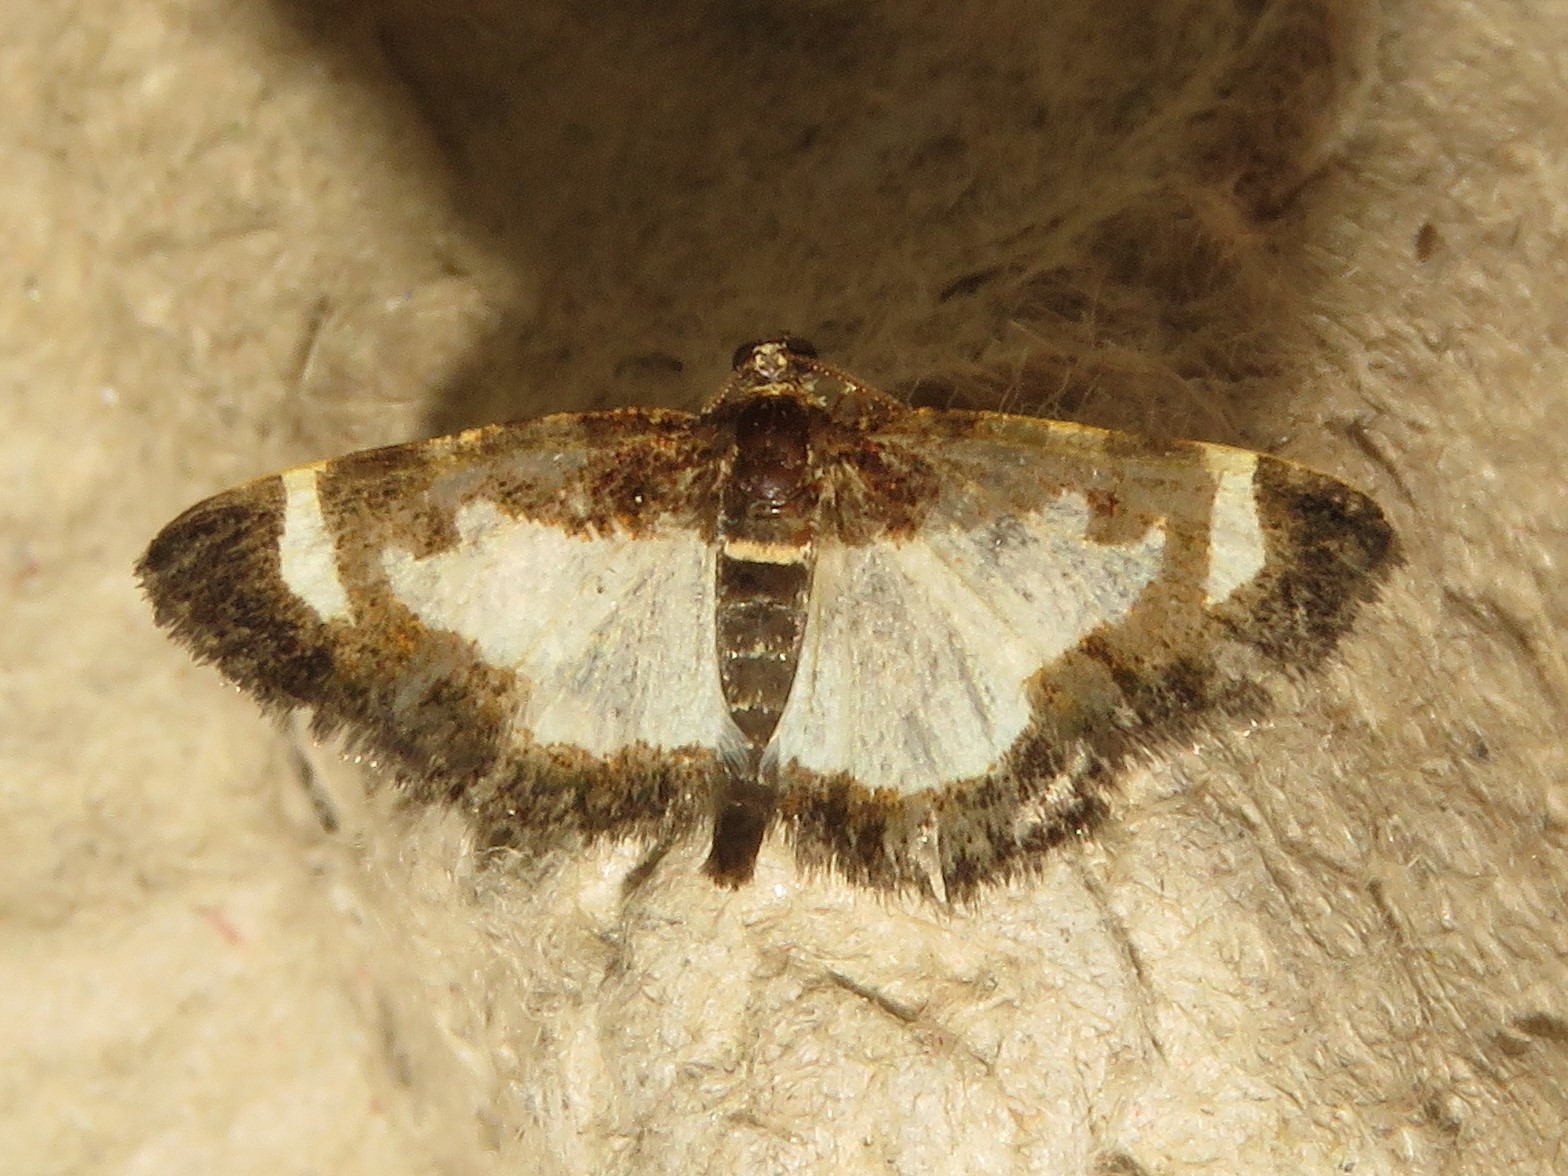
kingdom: Animalia
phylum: Arthropoda
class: Insecta
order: Lepidoptera
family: Geometridae
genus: Heliomata
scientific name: Heliomata cycladata
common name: Common spring moth
